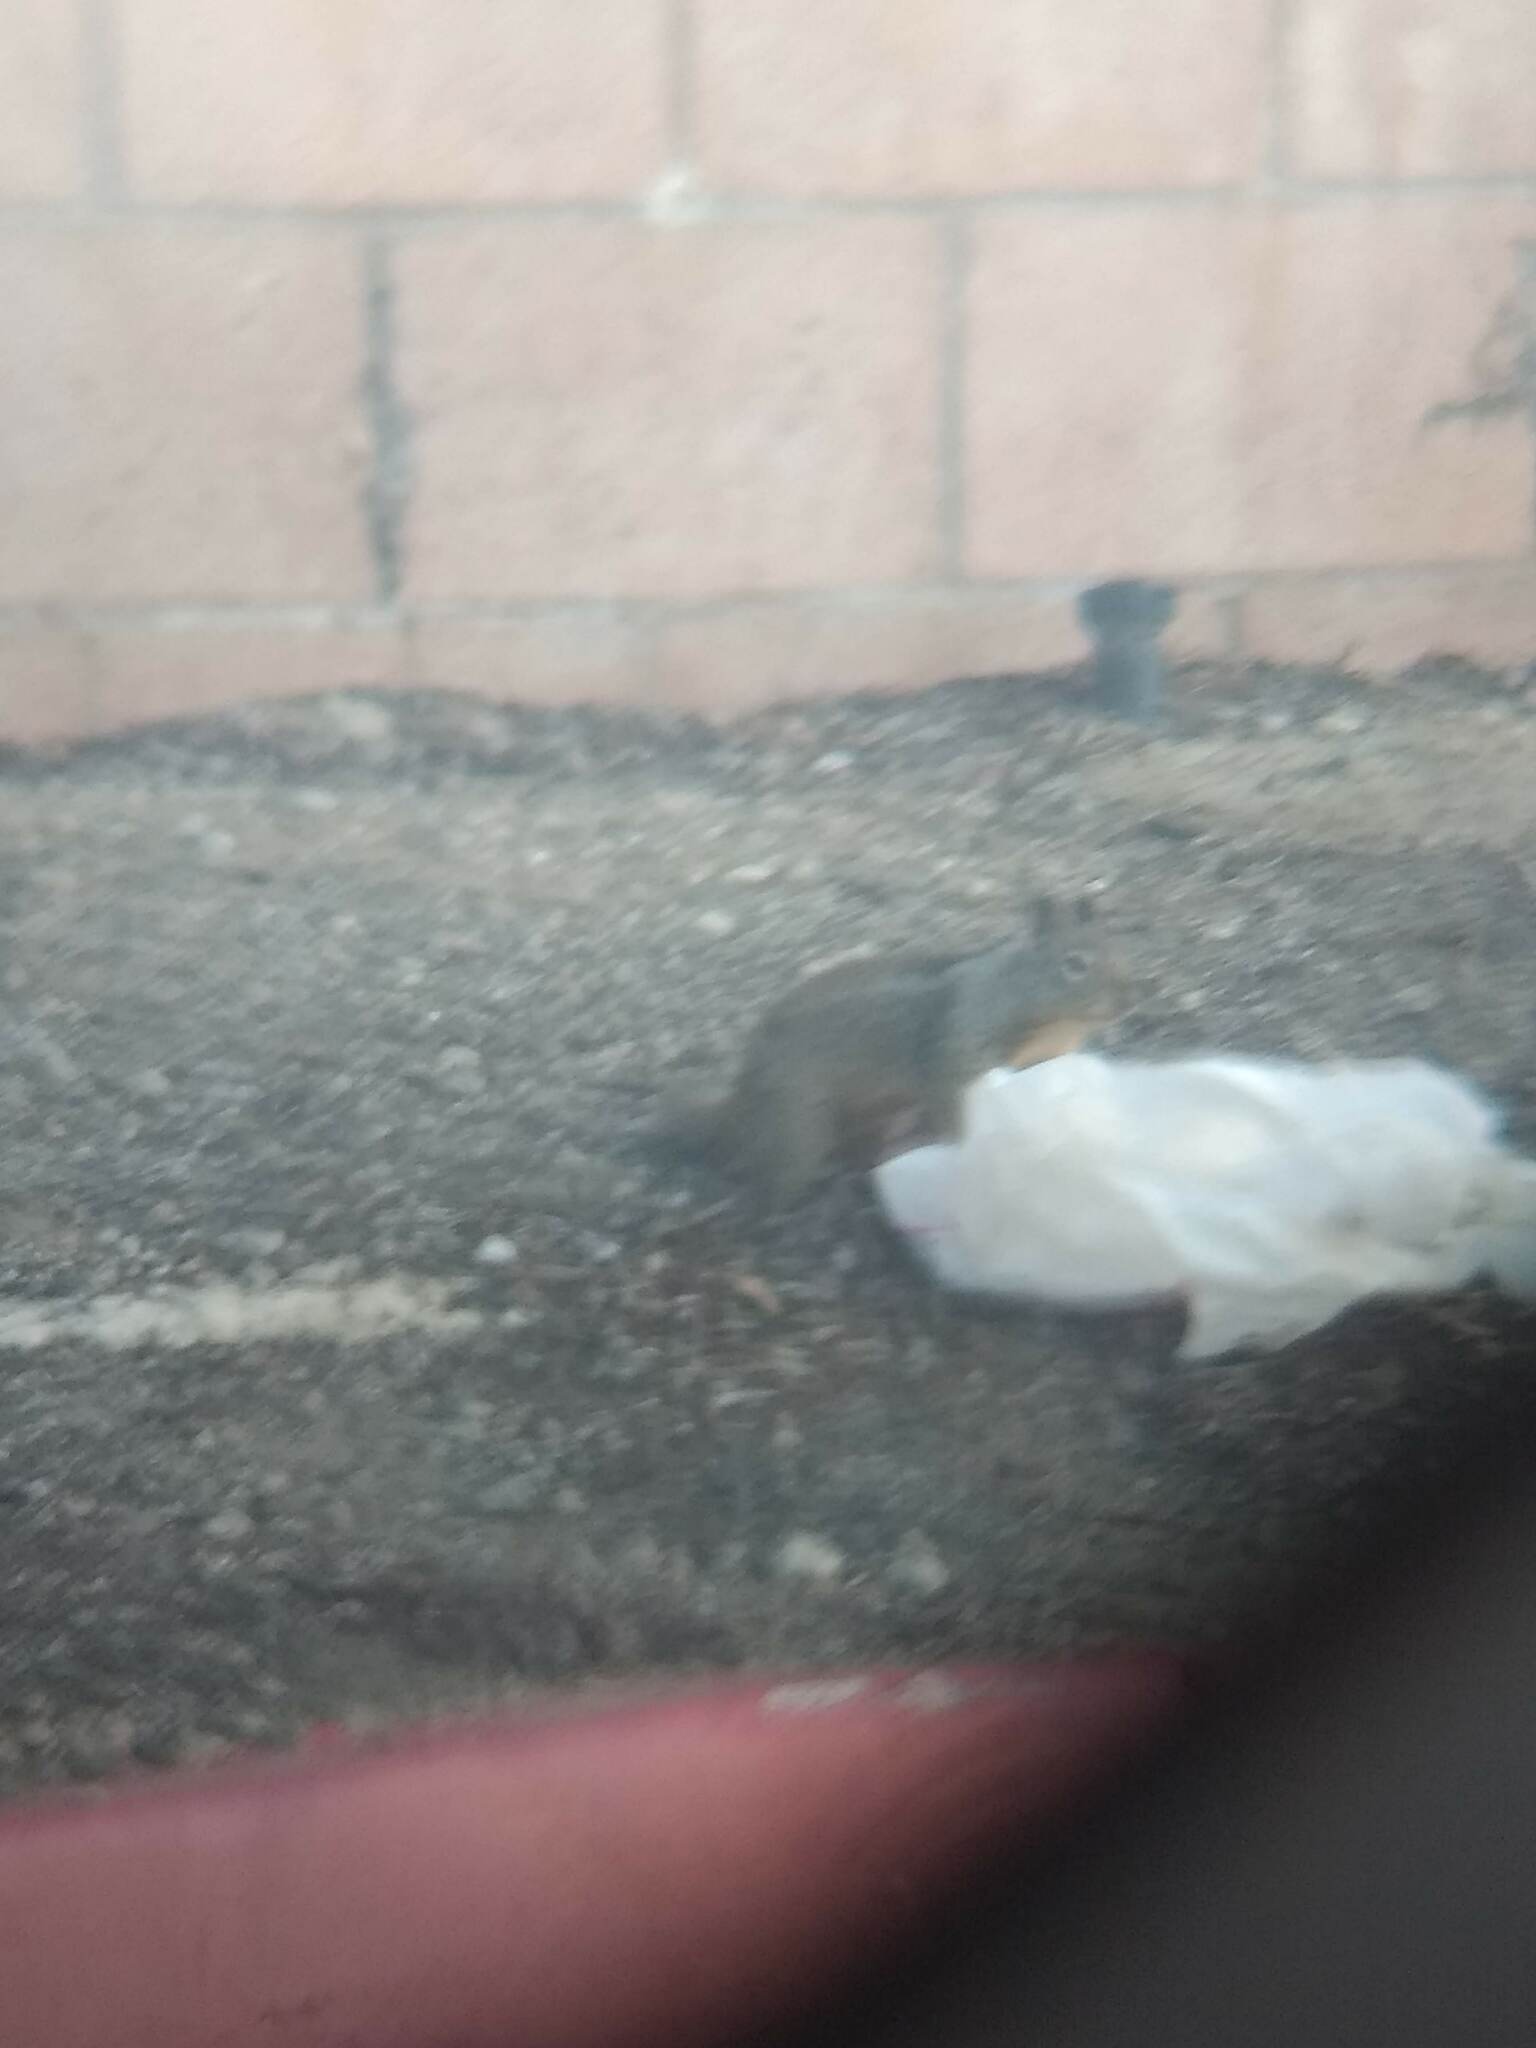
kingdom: Animalia
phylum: Chordata
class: Mammalia
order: Rodentia
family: Sciuridae
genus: Otospermophilus
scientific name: Otospermophilus beecheyi
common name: California ground squirrel
